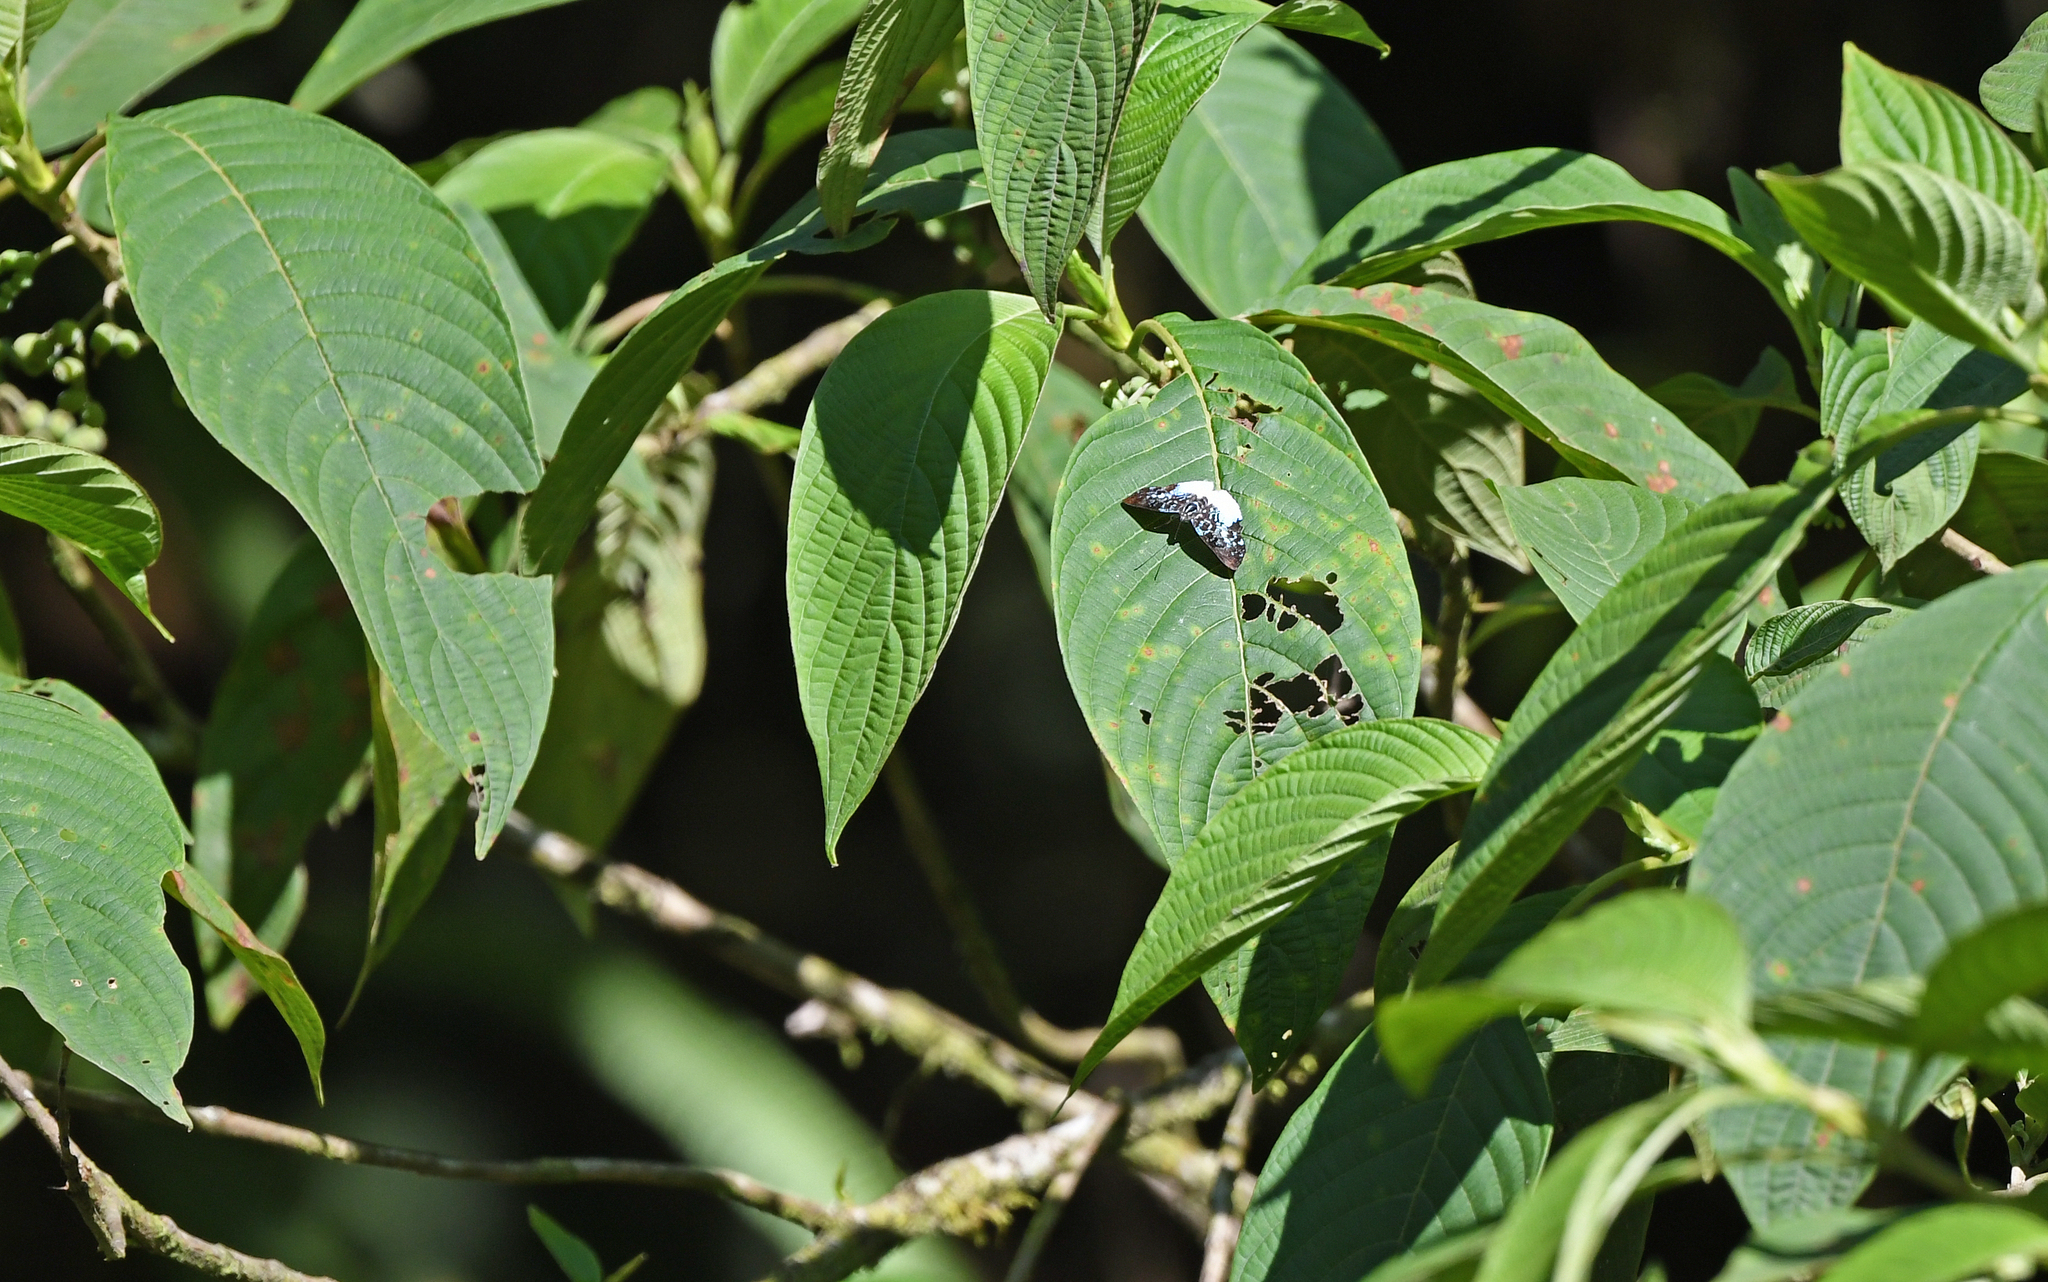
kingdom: Animalia
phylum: Arthropoda
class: Insecta
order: Lepidoptera
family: Riodinidae
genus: Periplacis
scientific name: Periplacis hebrus
